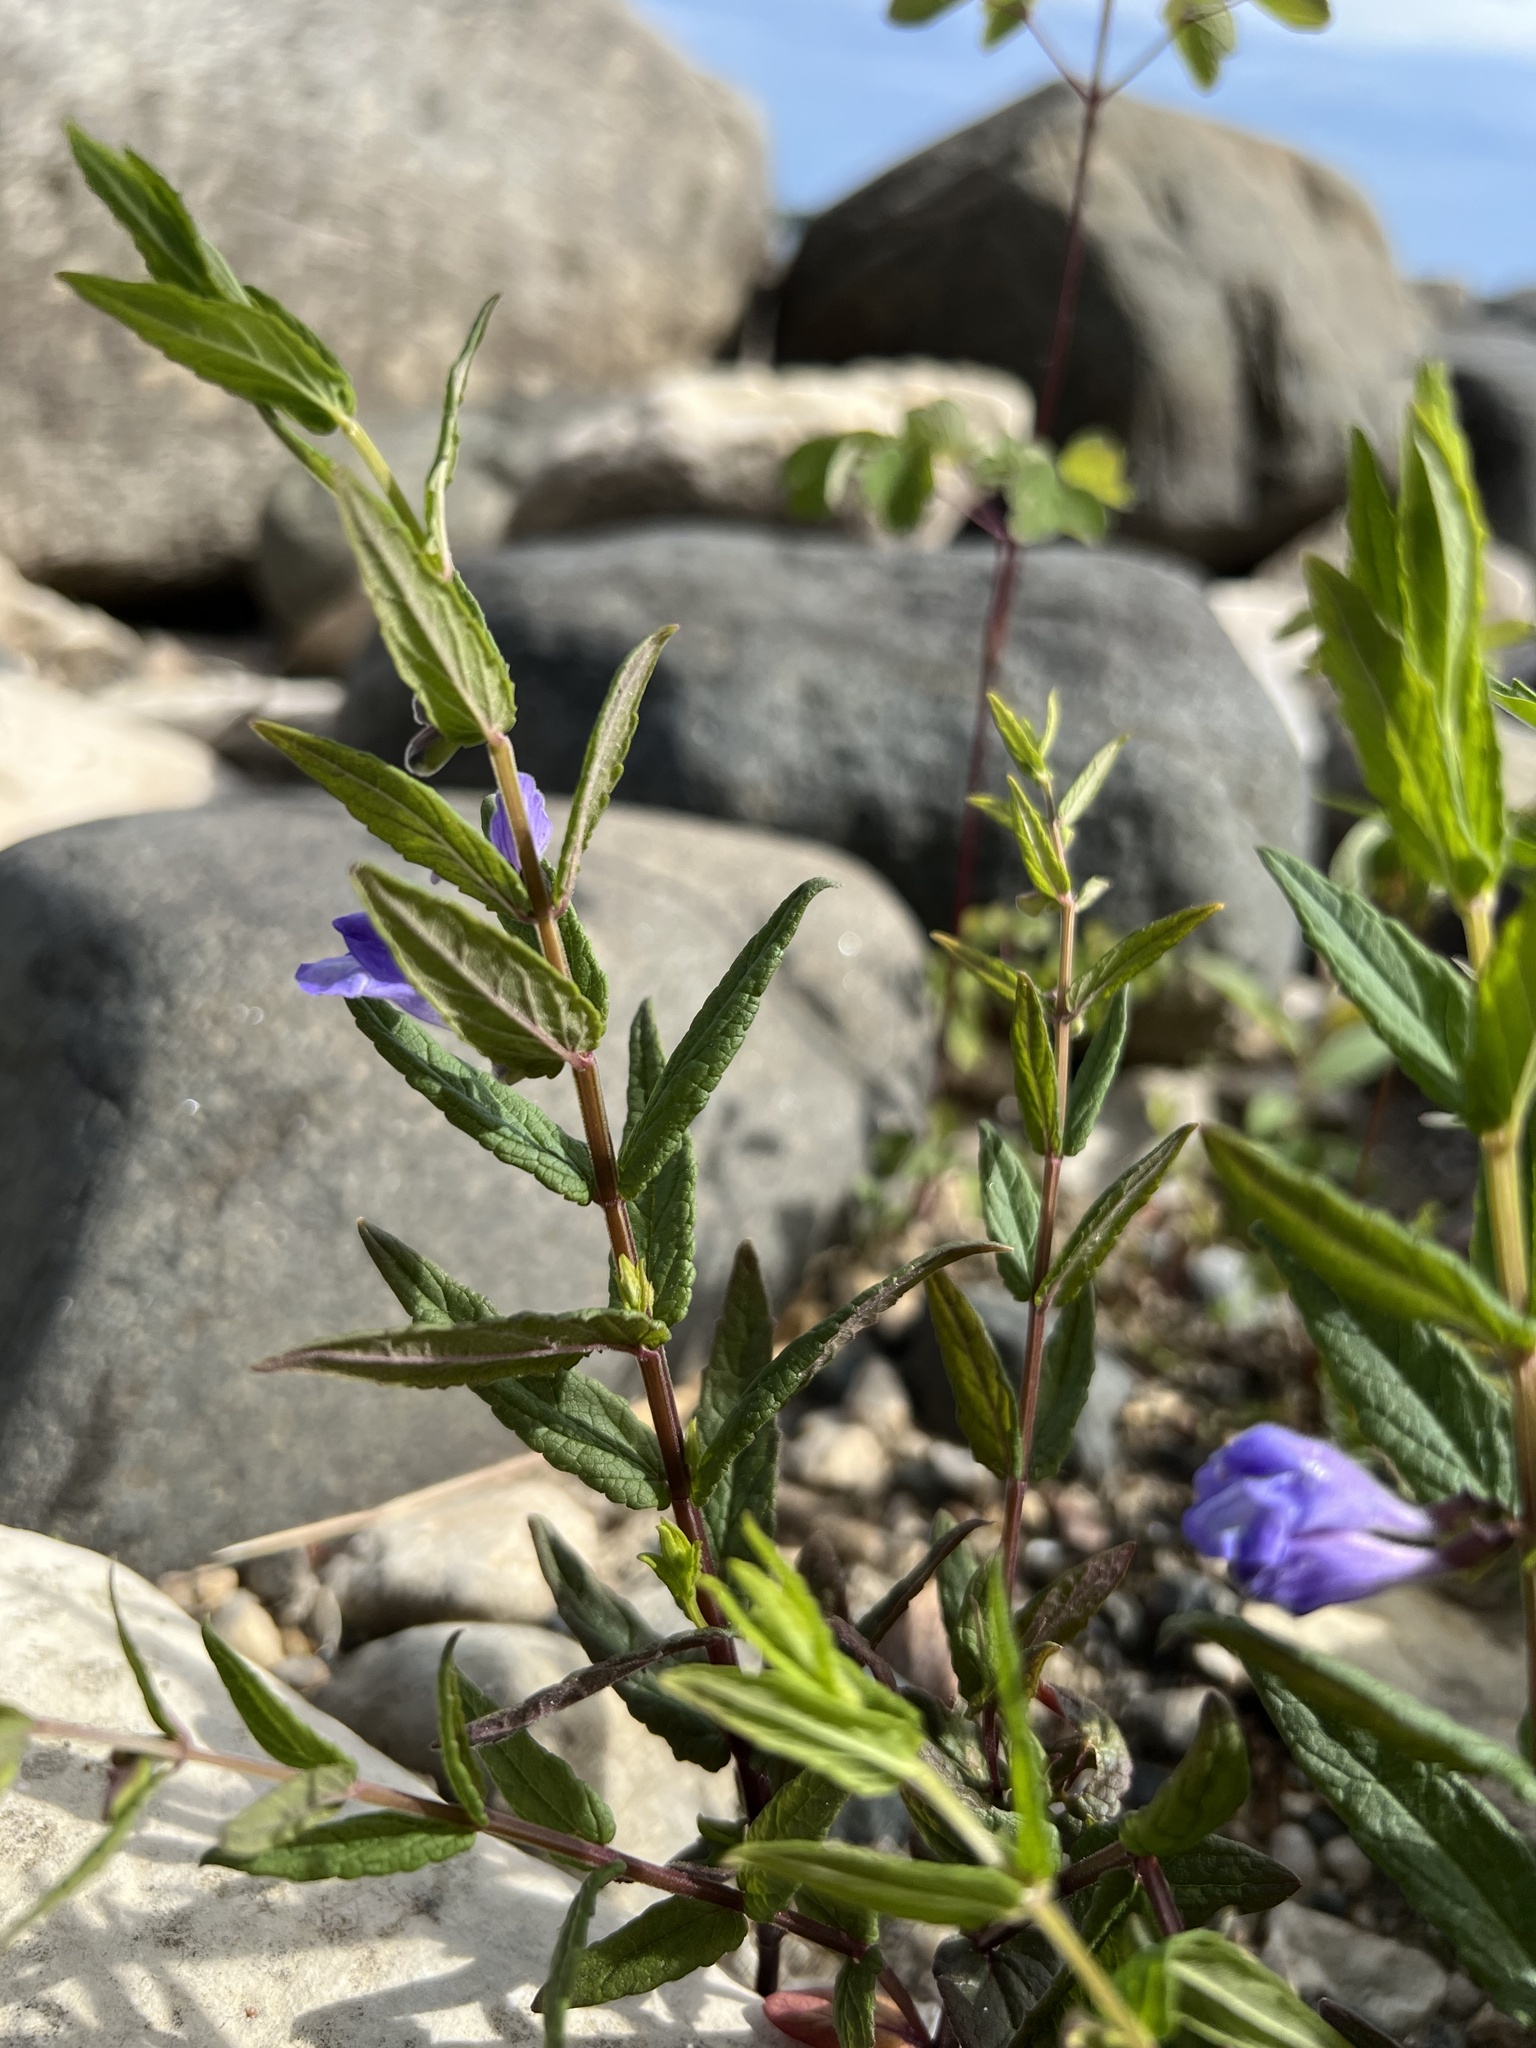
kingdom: Plantae
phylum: Tracheophyta
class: Magnoliopsida
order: Lamiales
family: Lamiaceae
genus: Scutellaria
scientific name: Scutellaria galericulata
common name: Skullcap
